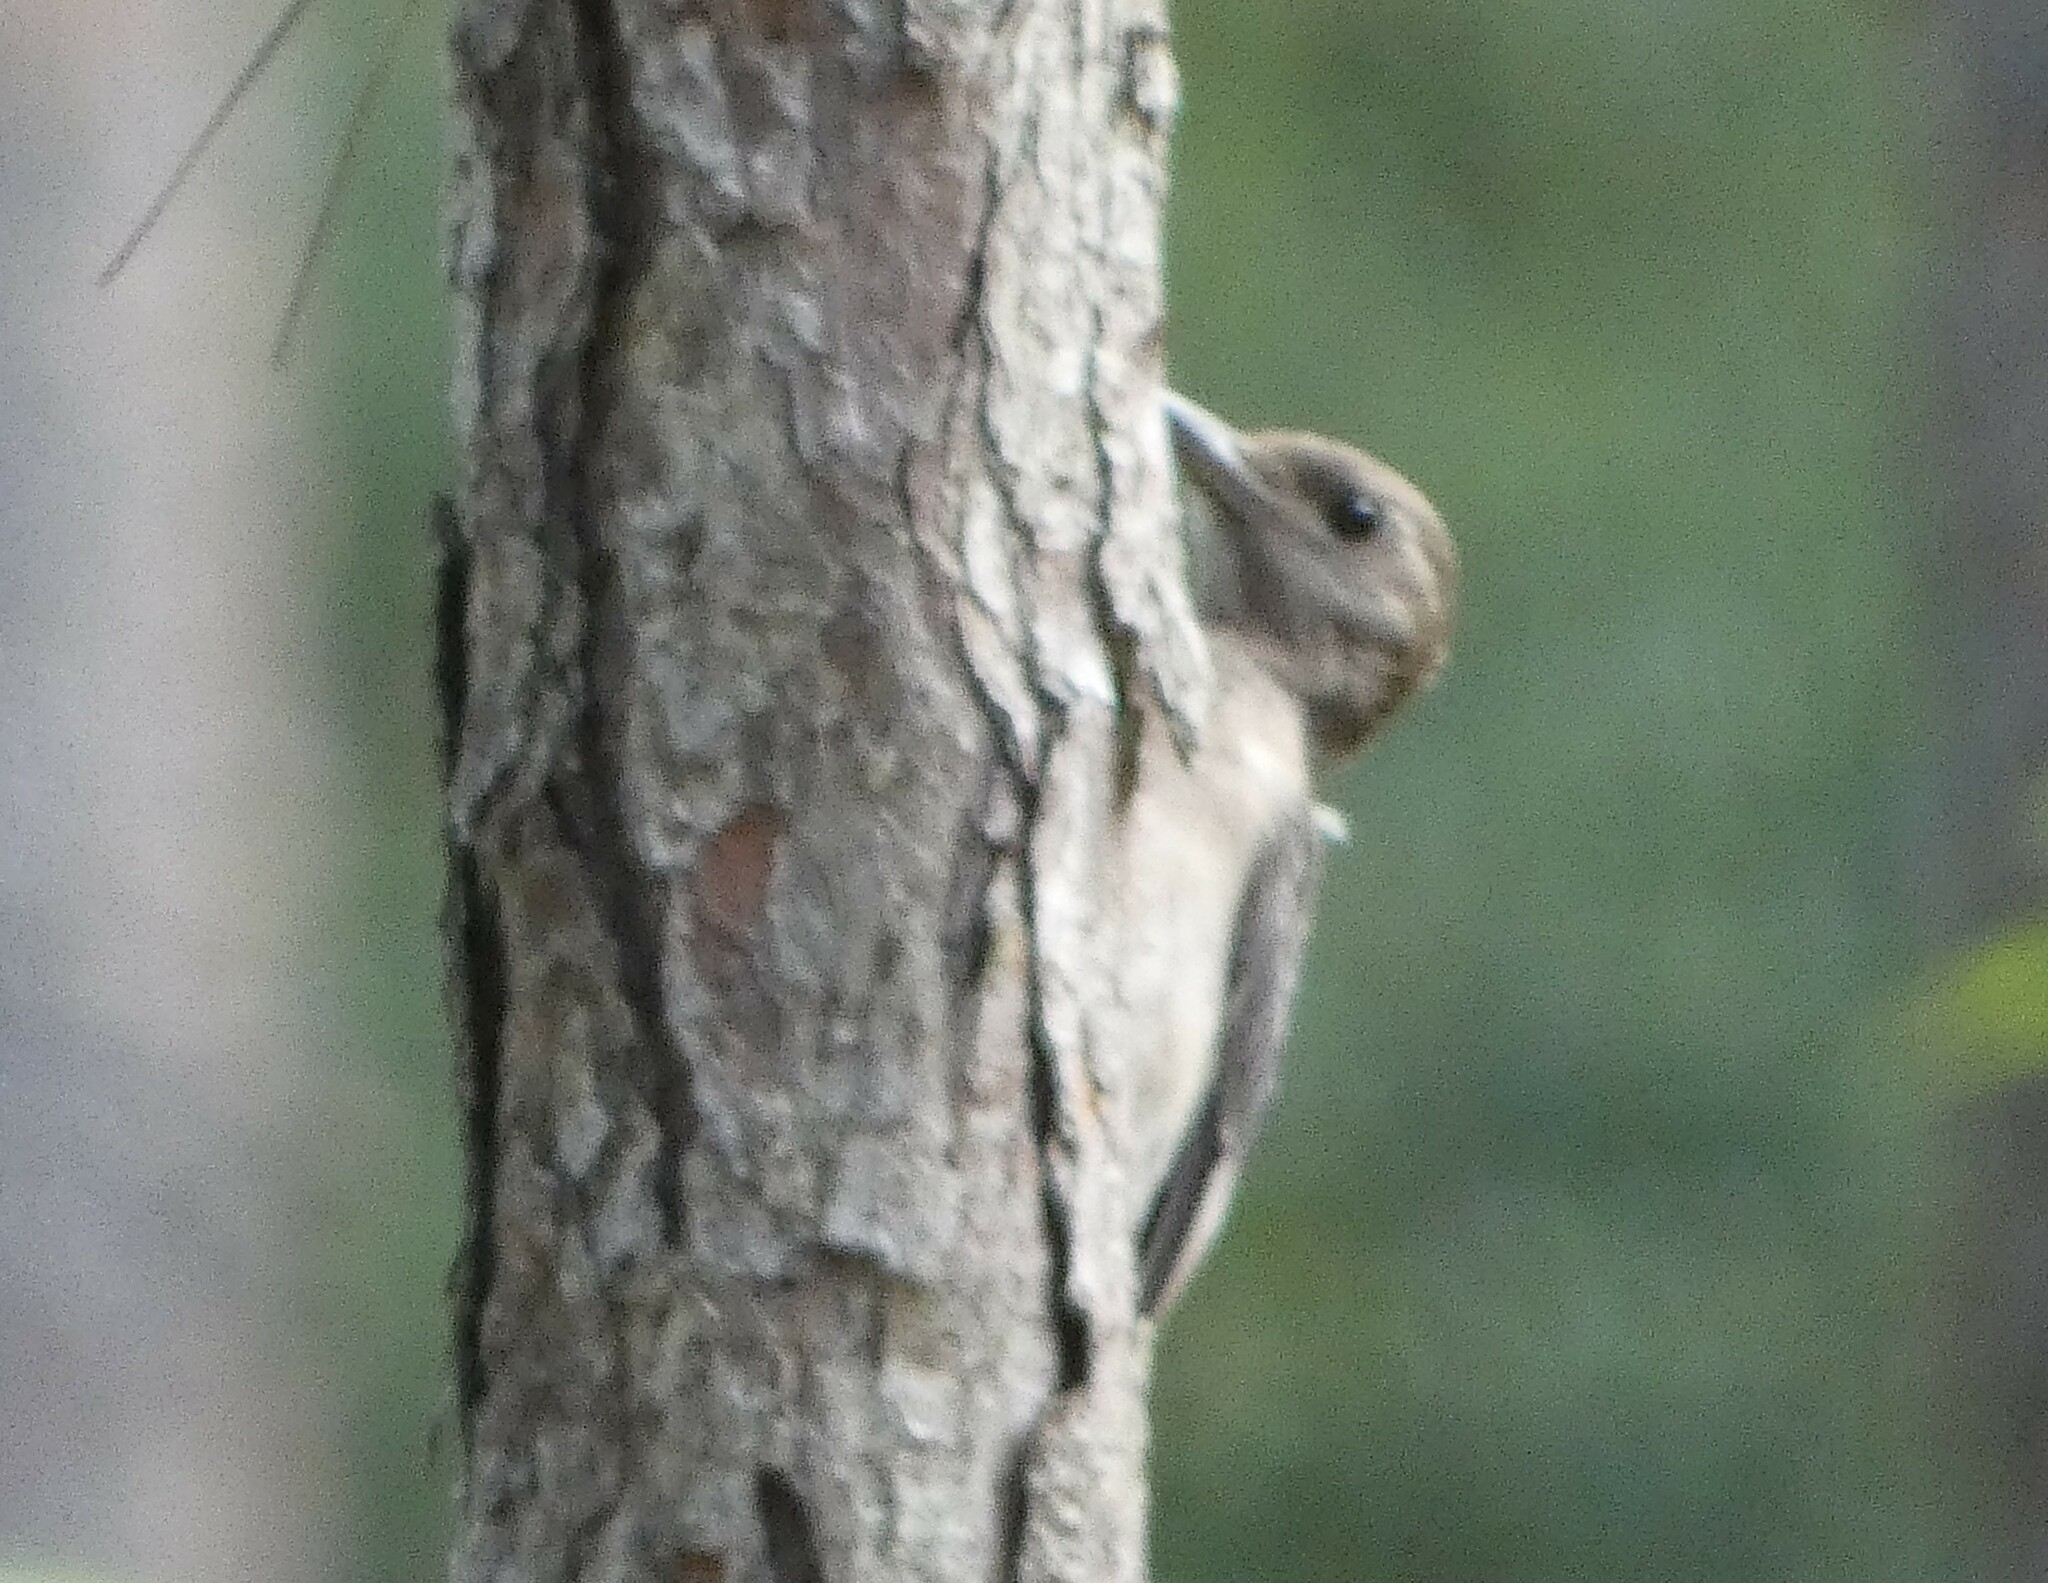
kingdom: Animalia
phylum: Chordata
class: Aves
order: Piciformes
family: Picidae
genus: Melanerpes
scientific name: Melanerpes erythrocephalus
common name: Red-headed woodpecker
